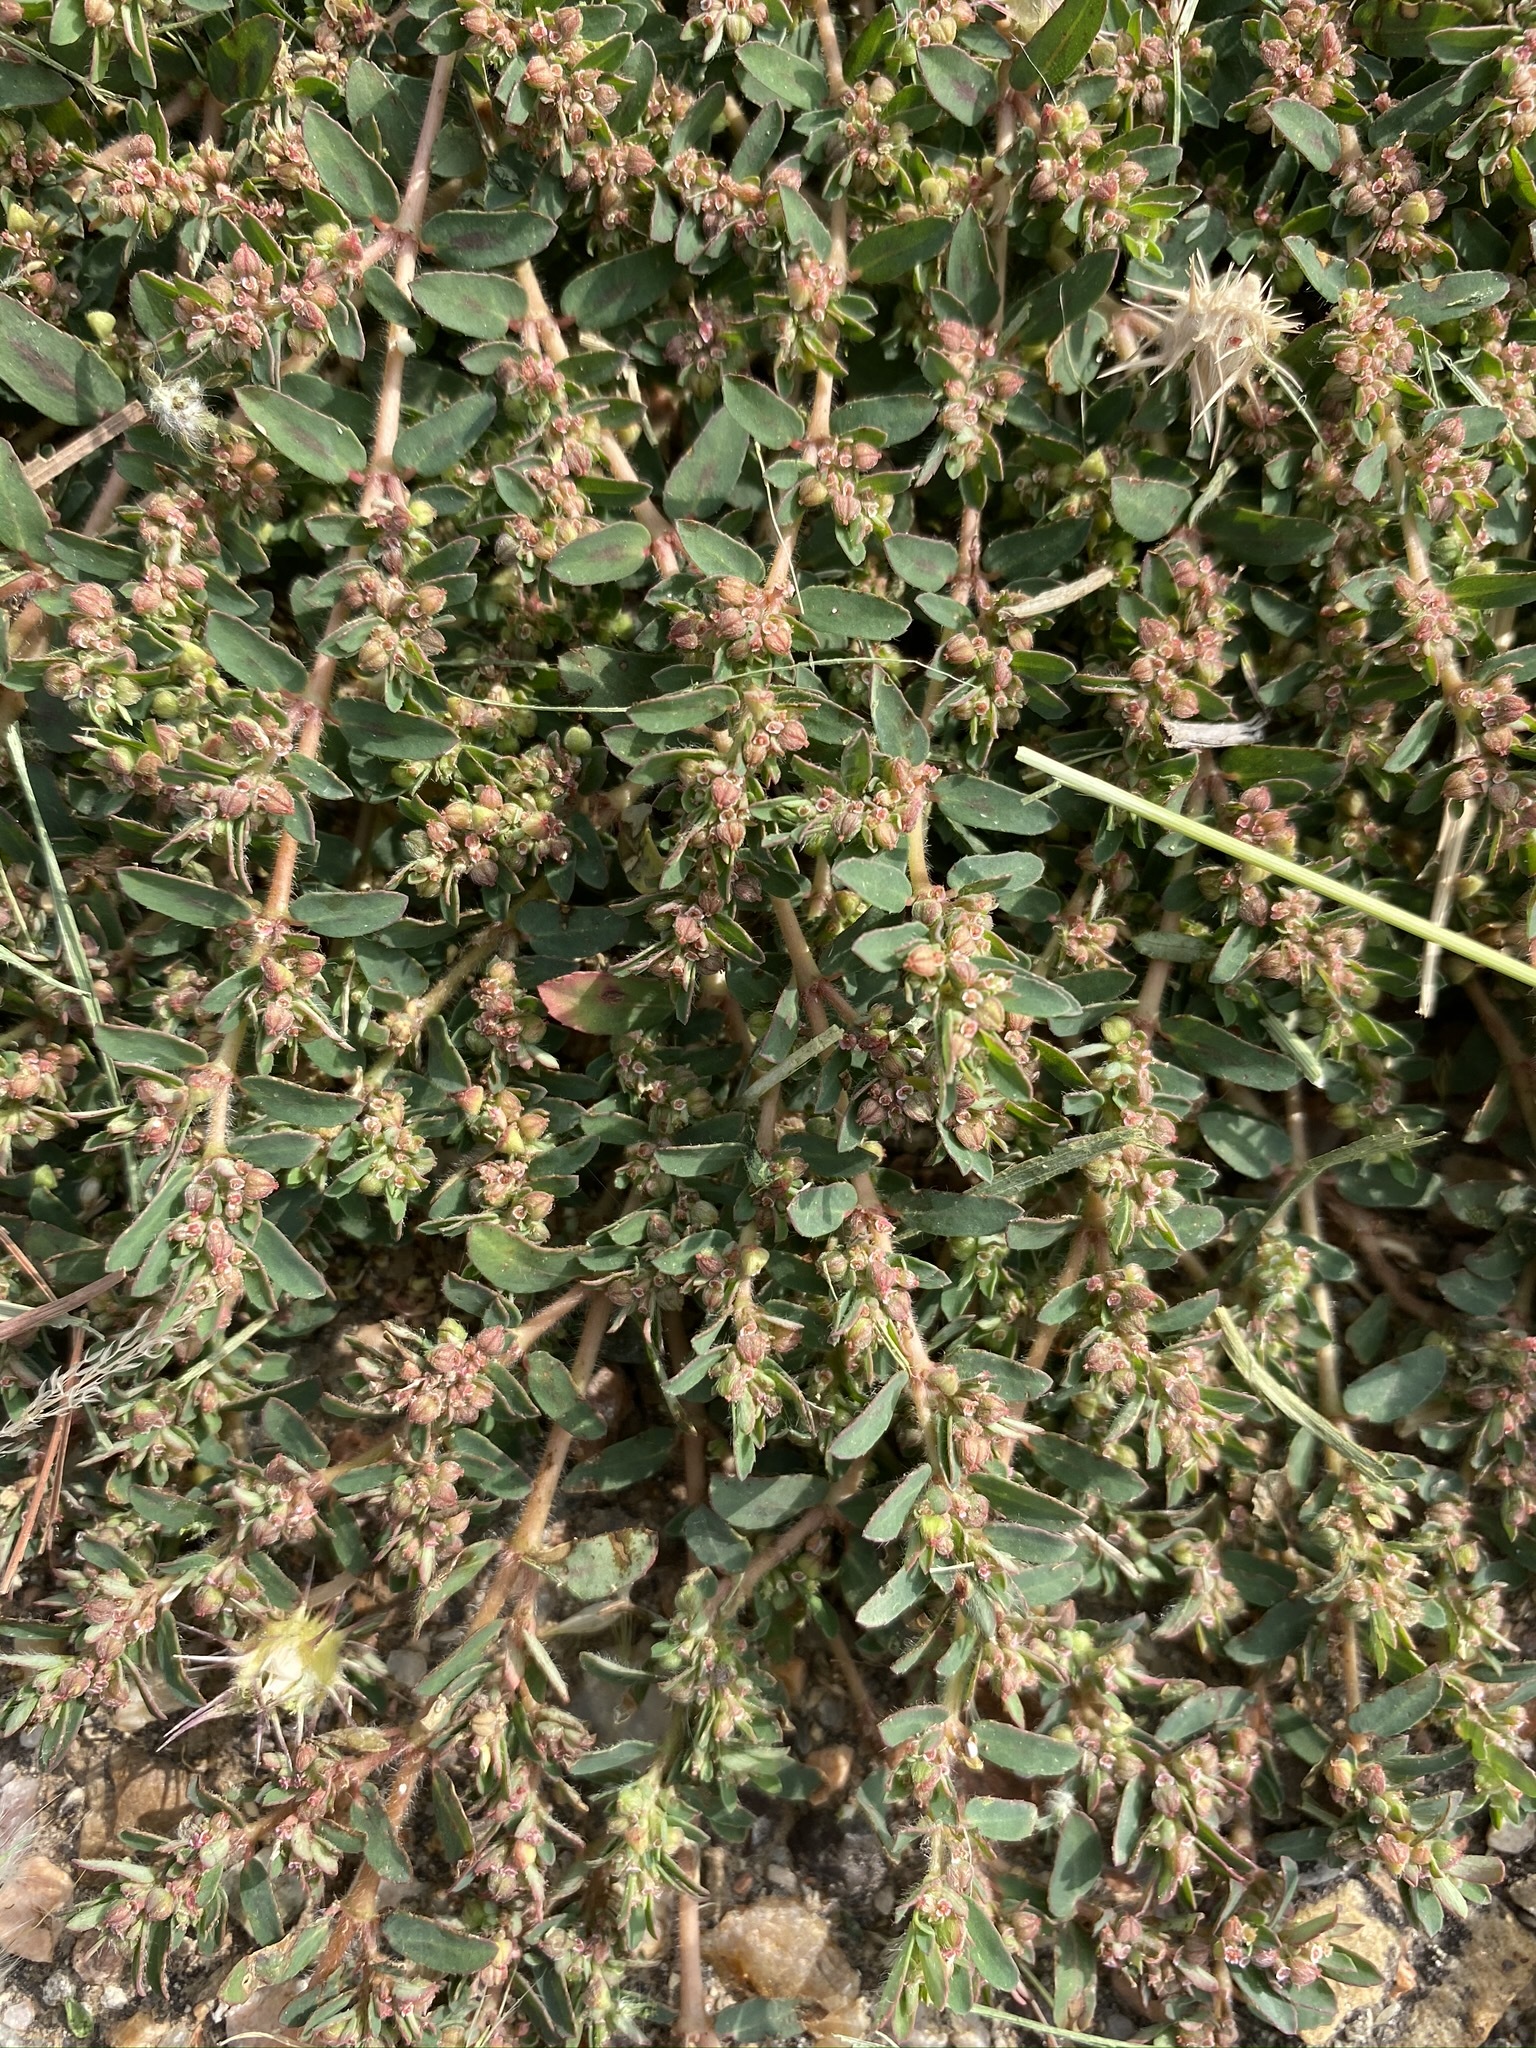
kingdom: Plantae
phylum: Tracheophyta
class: Magnoliopsida
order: Malpighiales
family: Euphorbiaceae
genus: Euphorbia
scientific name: Euphorbia maculata
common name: Spotted spurge
